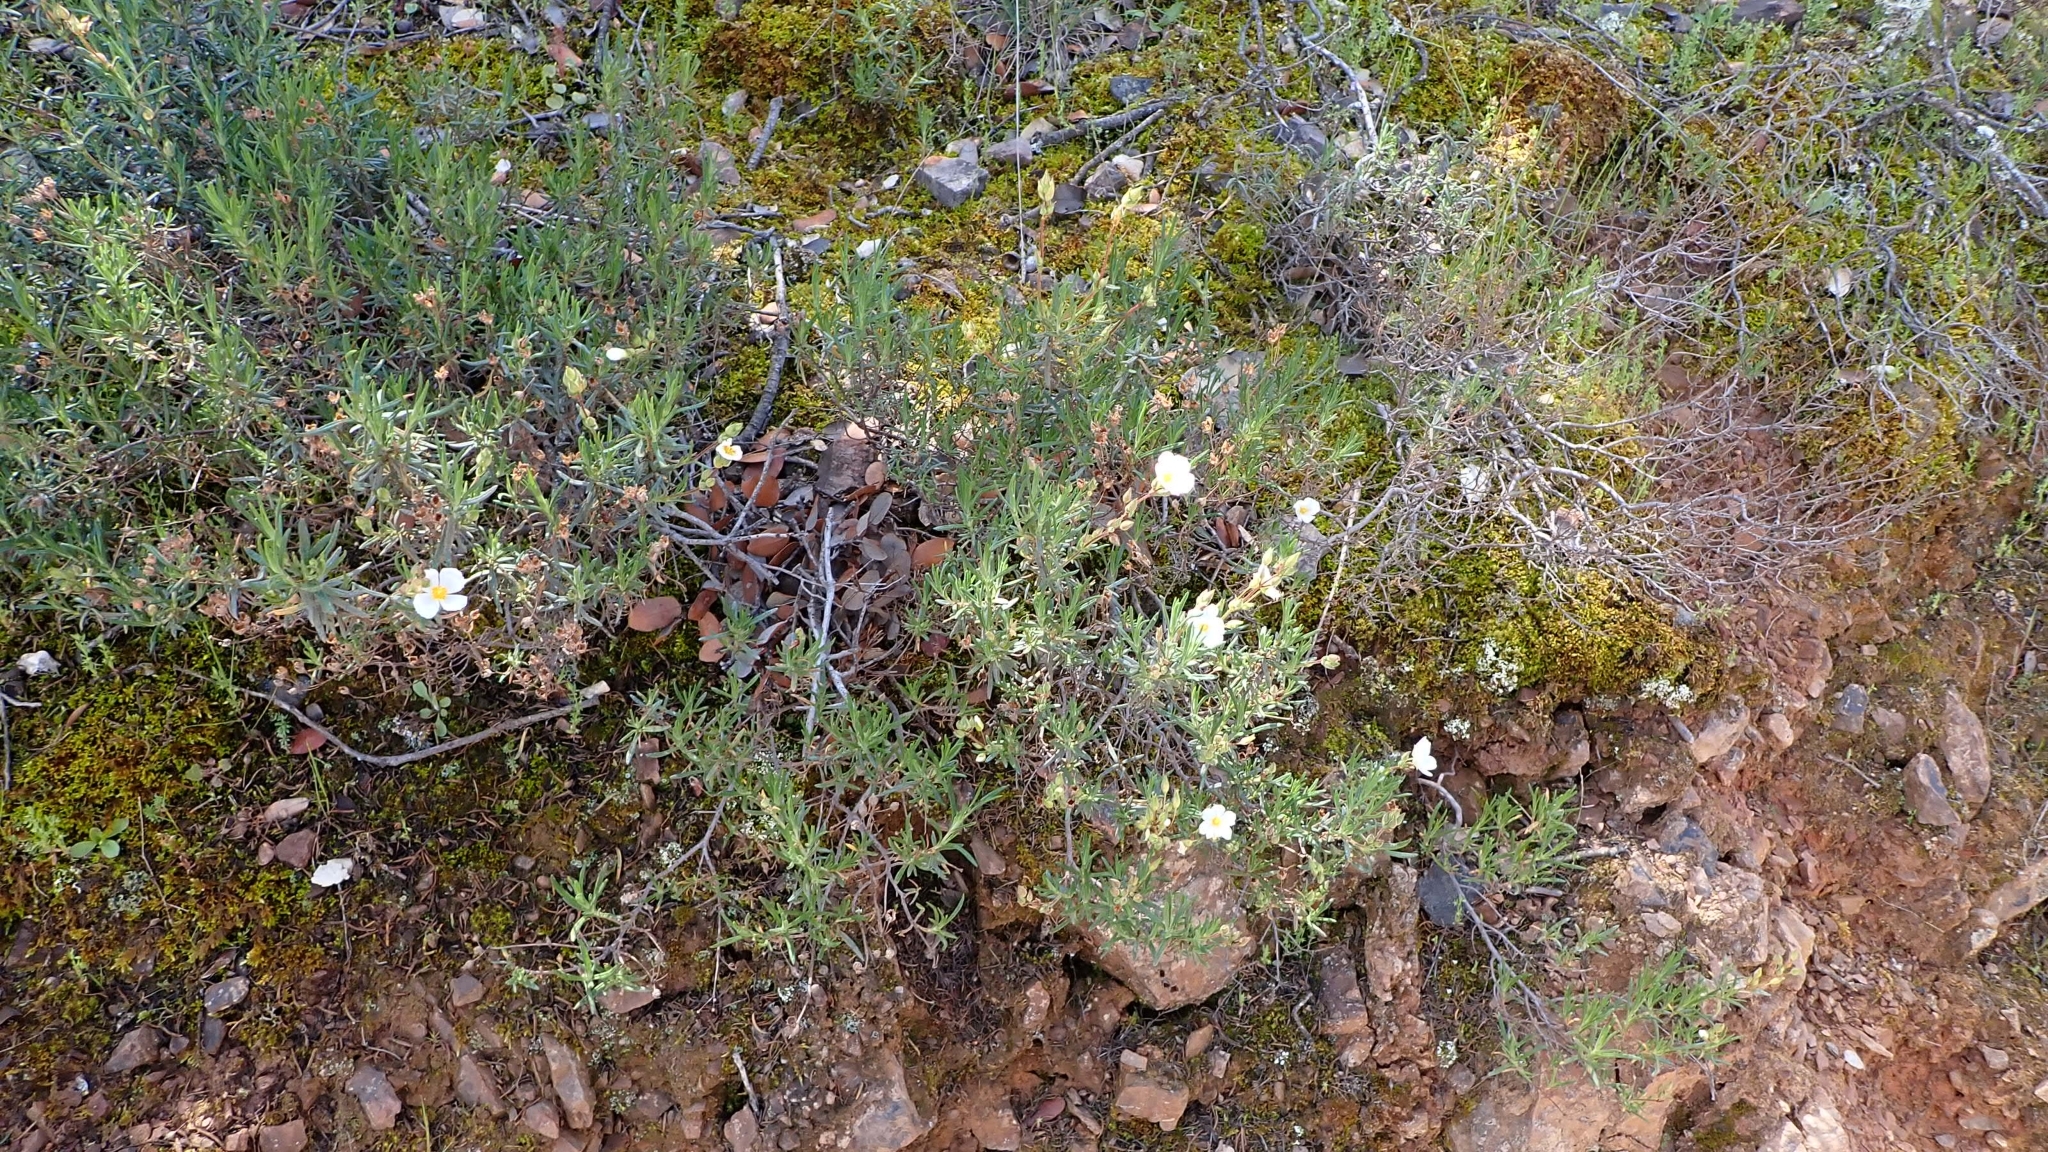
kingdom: Plantae
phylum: Tracheophyta
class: Magnoliopsida
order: Malvales
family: Cistaceae
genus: Halimium
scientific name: Halimium umbellatum
